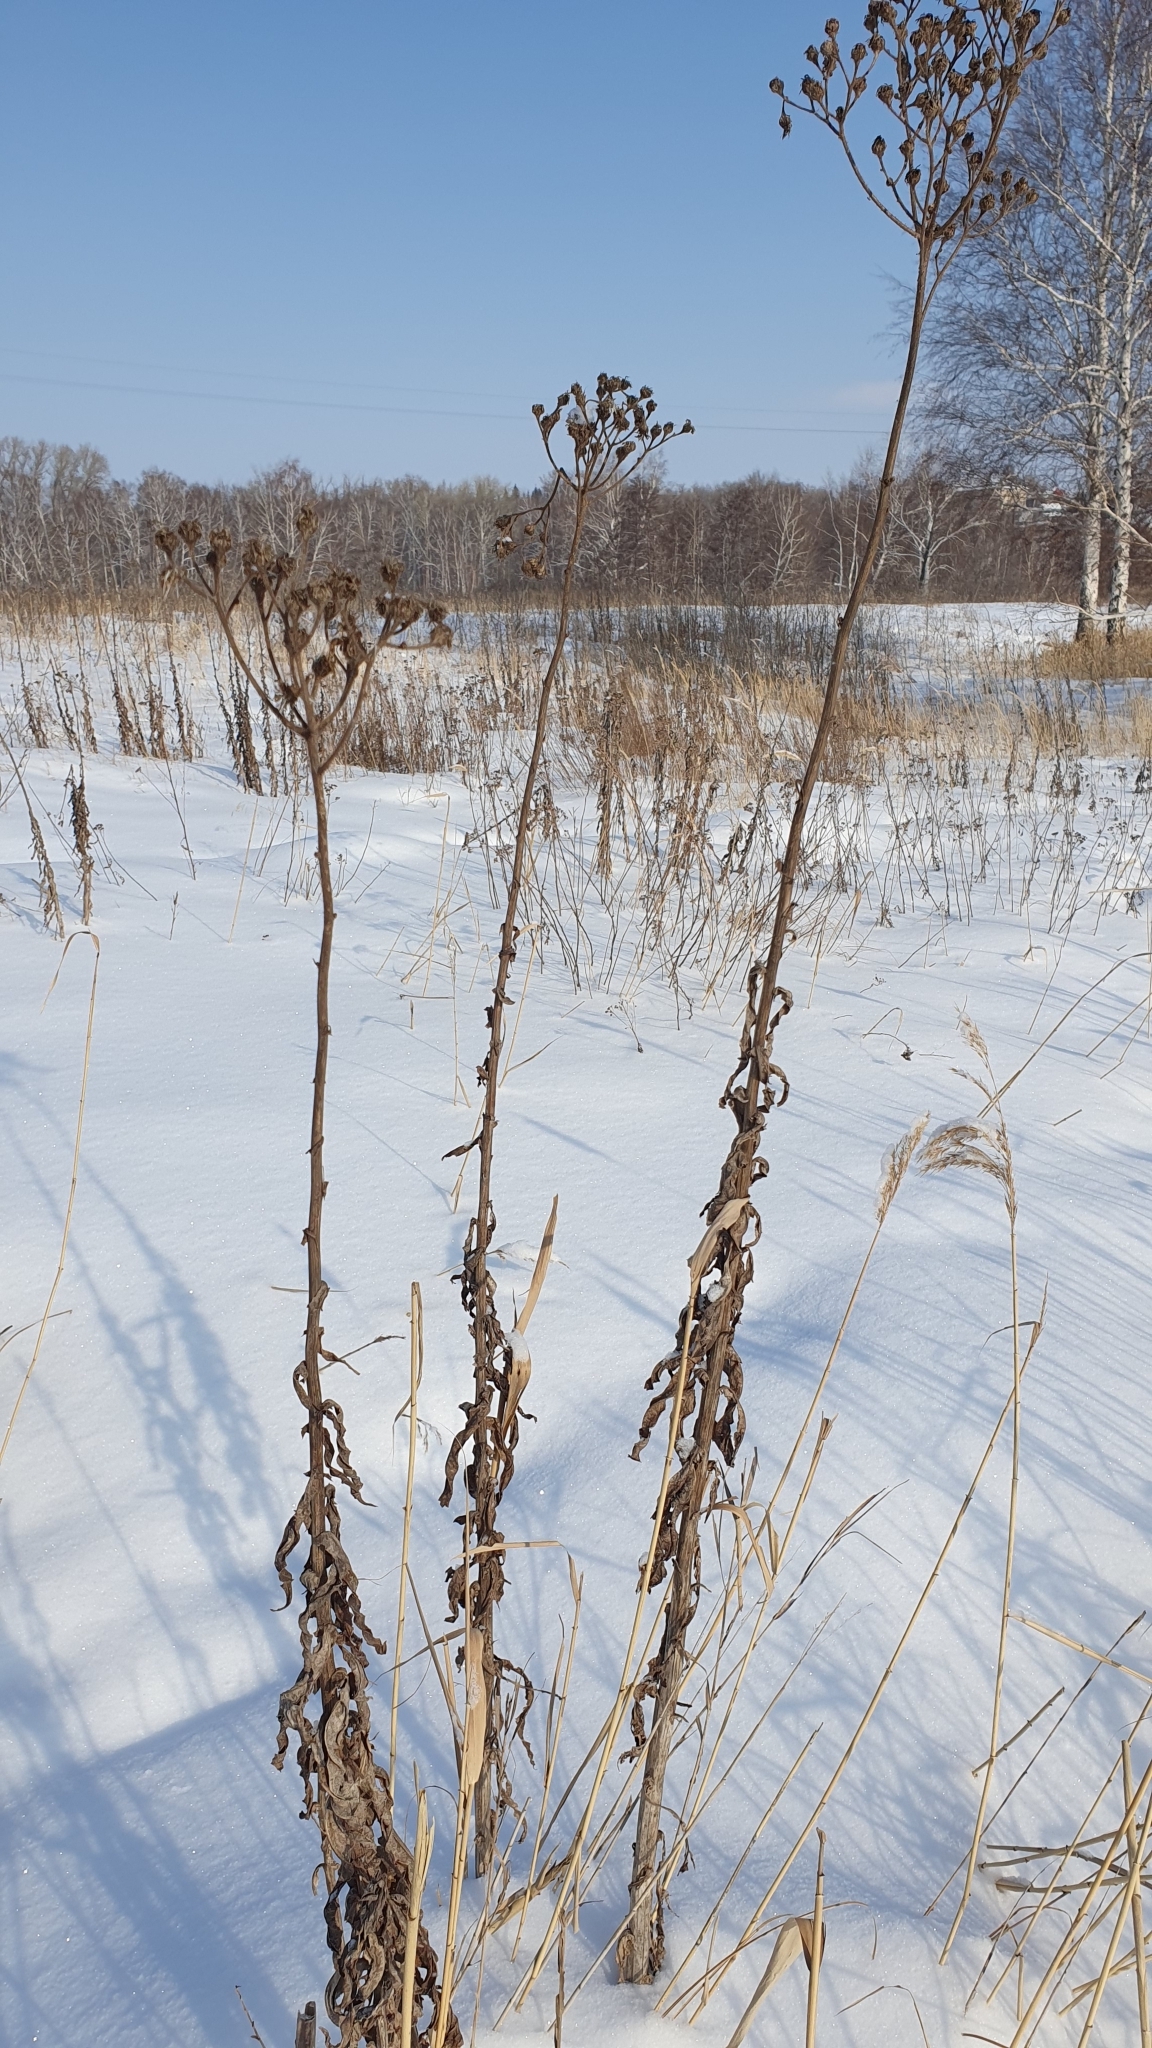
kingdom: Plantae
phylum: Tracheophyta
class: Magnoliopsida
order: Asterales
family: Asteraceae
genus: Sonchus
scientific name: Sonchus palustris
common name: Marsh sow-thistle
